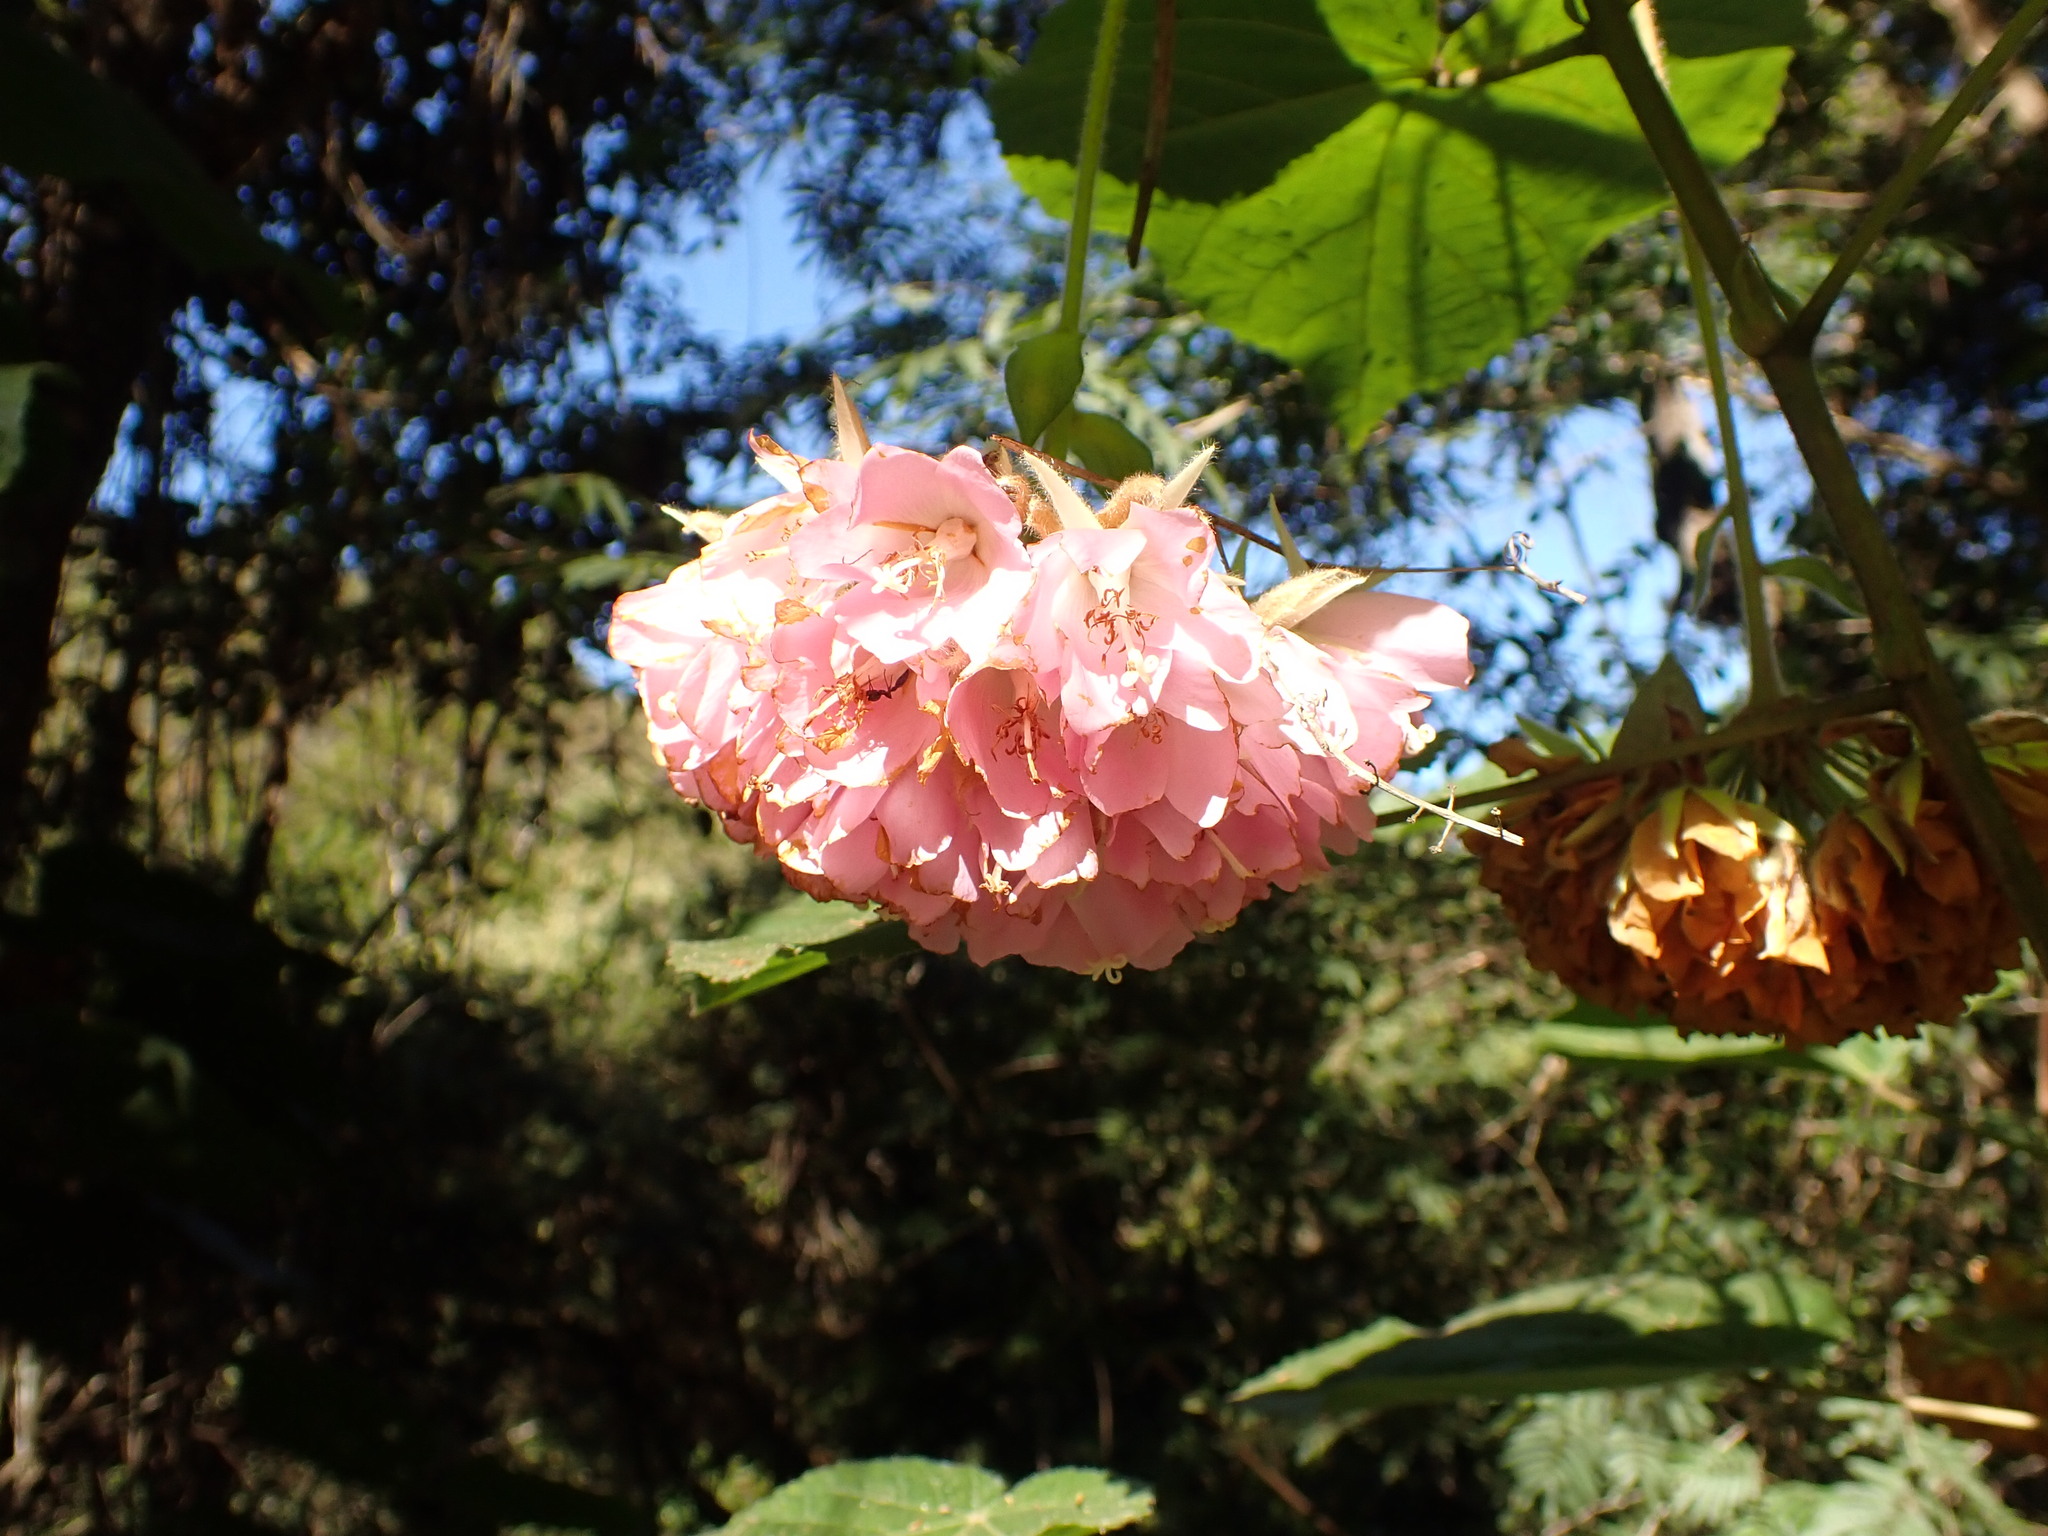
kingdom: Plantae
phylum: Tracheophyta
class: Magnoliopsida
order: Malvales
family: Malvaceae
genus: Dombeya
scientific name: Dombeya wallichii
